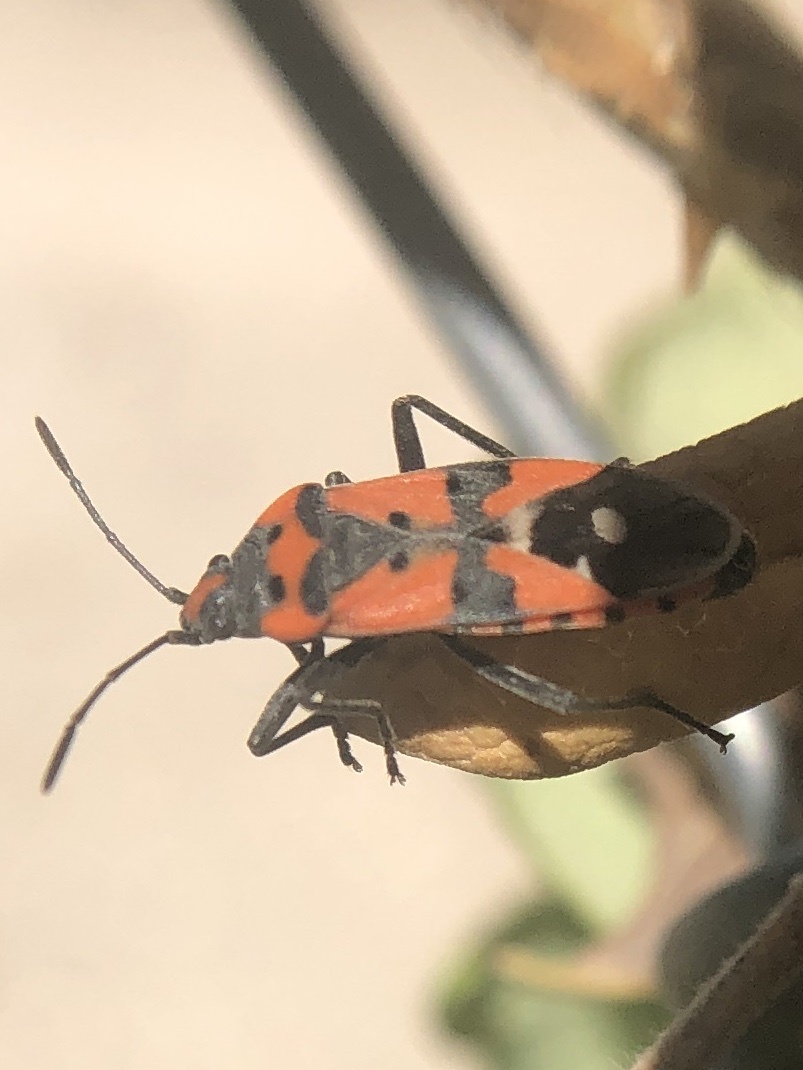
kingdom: Animalia
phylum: Arthropoda
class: Insecta
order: Hemiptera
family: Lygaeidae
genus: Lygaeus
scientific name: Lygaeus equestris
